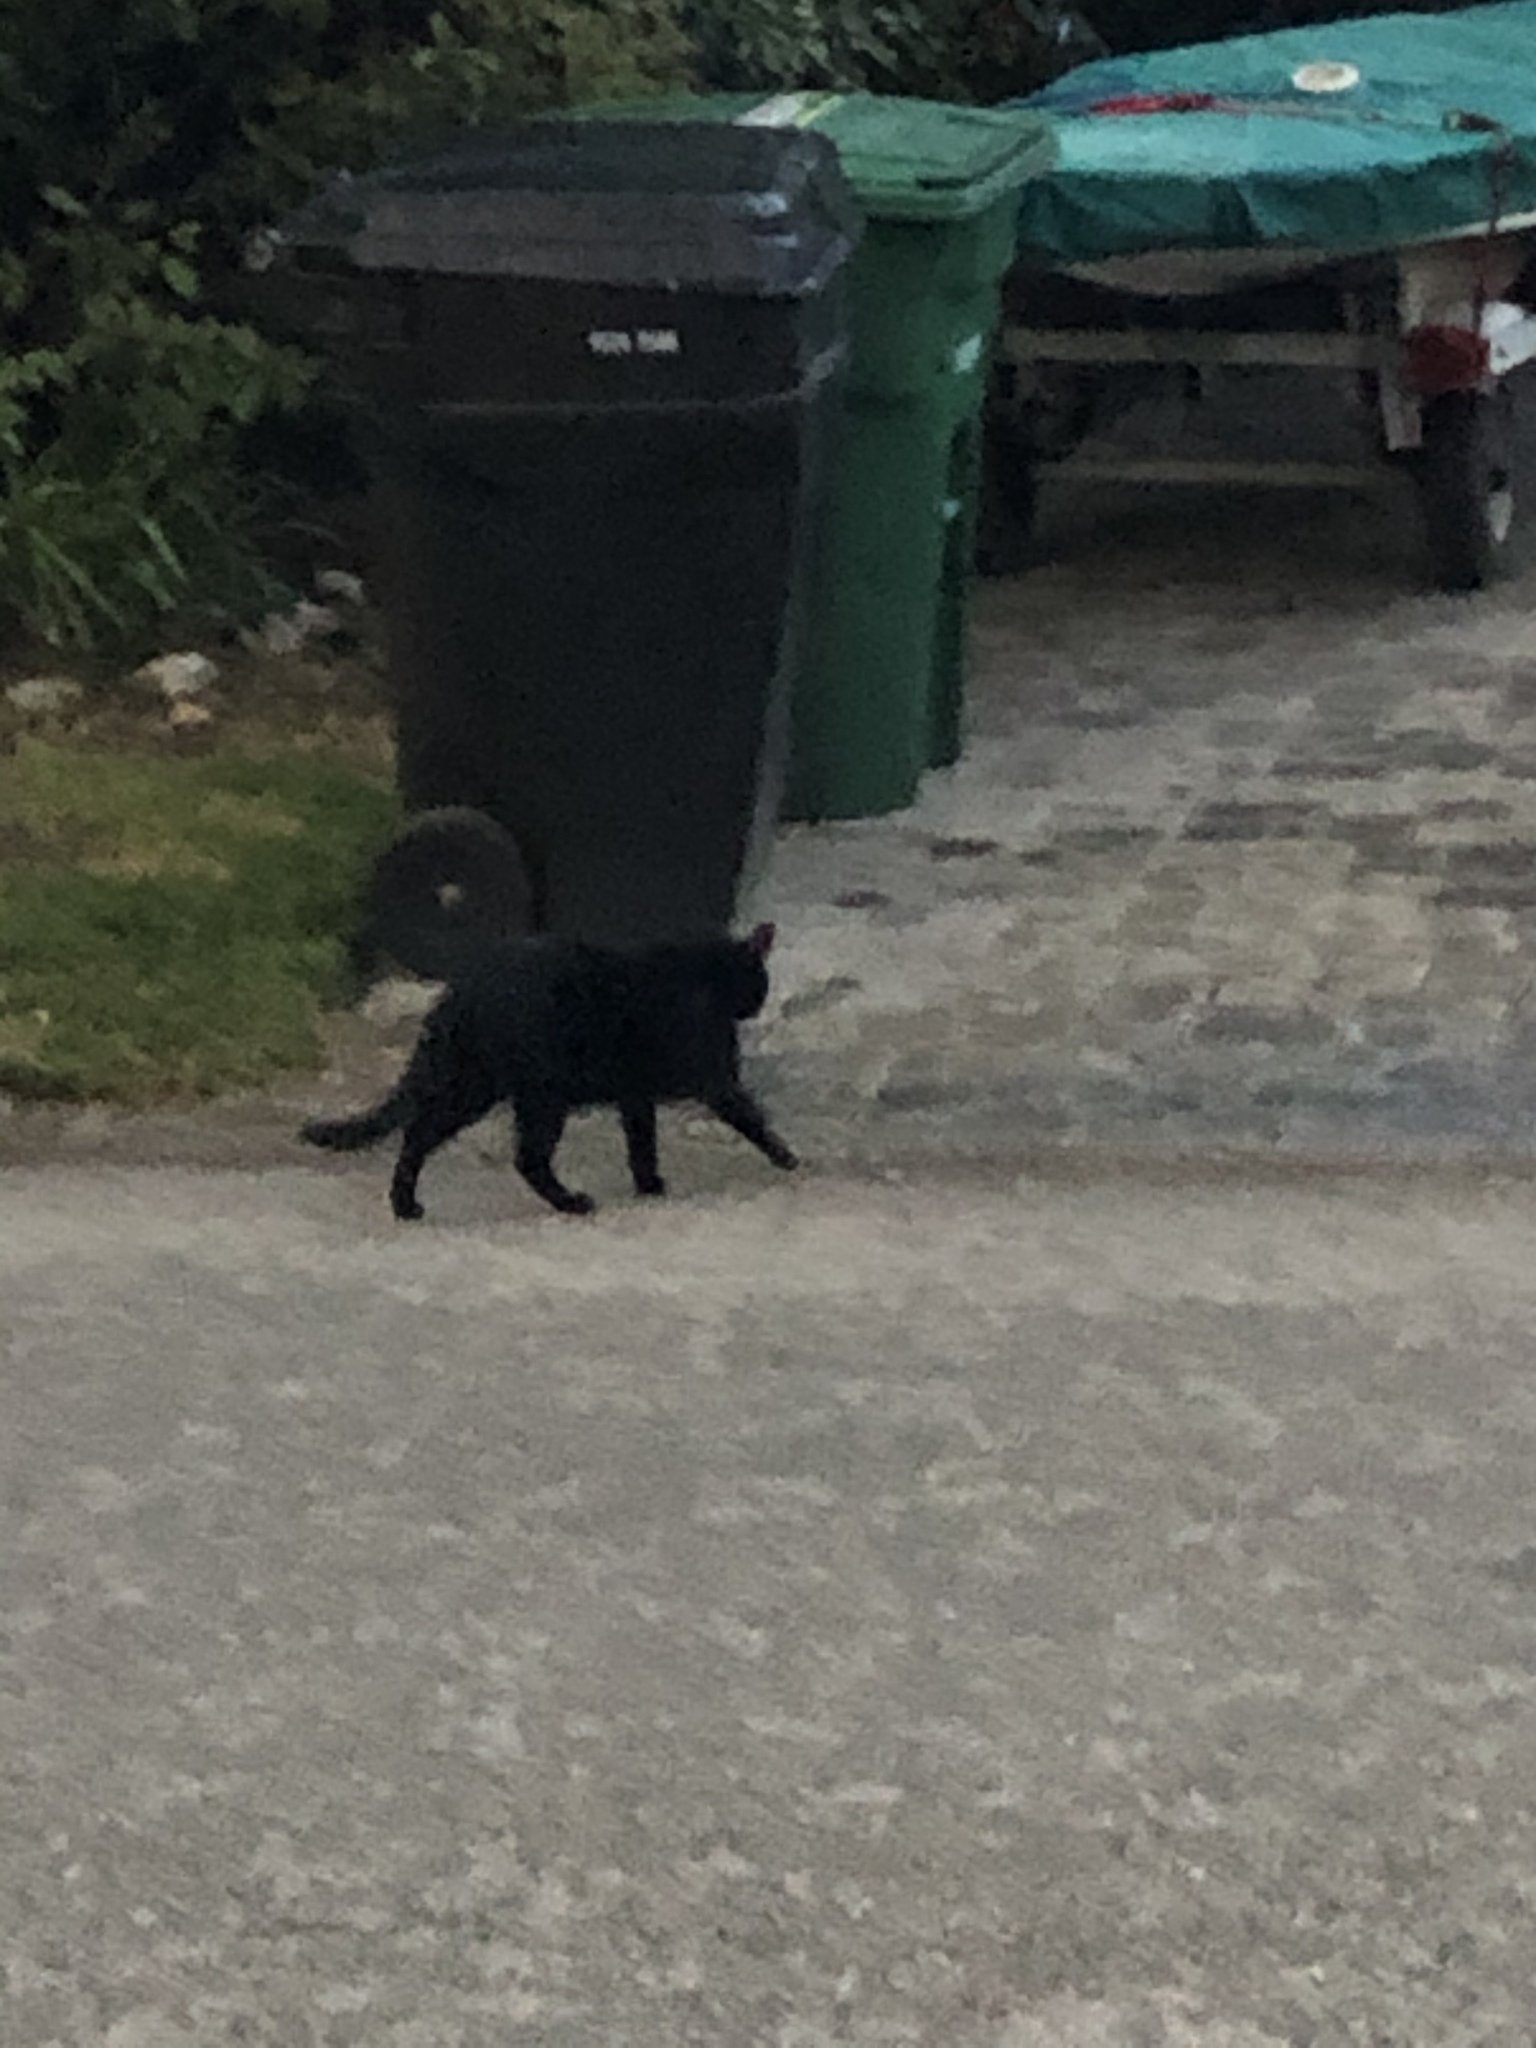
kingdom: Animalia
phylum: Chordata
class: Mammalia
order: Carnivora
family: Felidae
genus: Felis
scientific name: Felis catus
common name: Domestic cat
